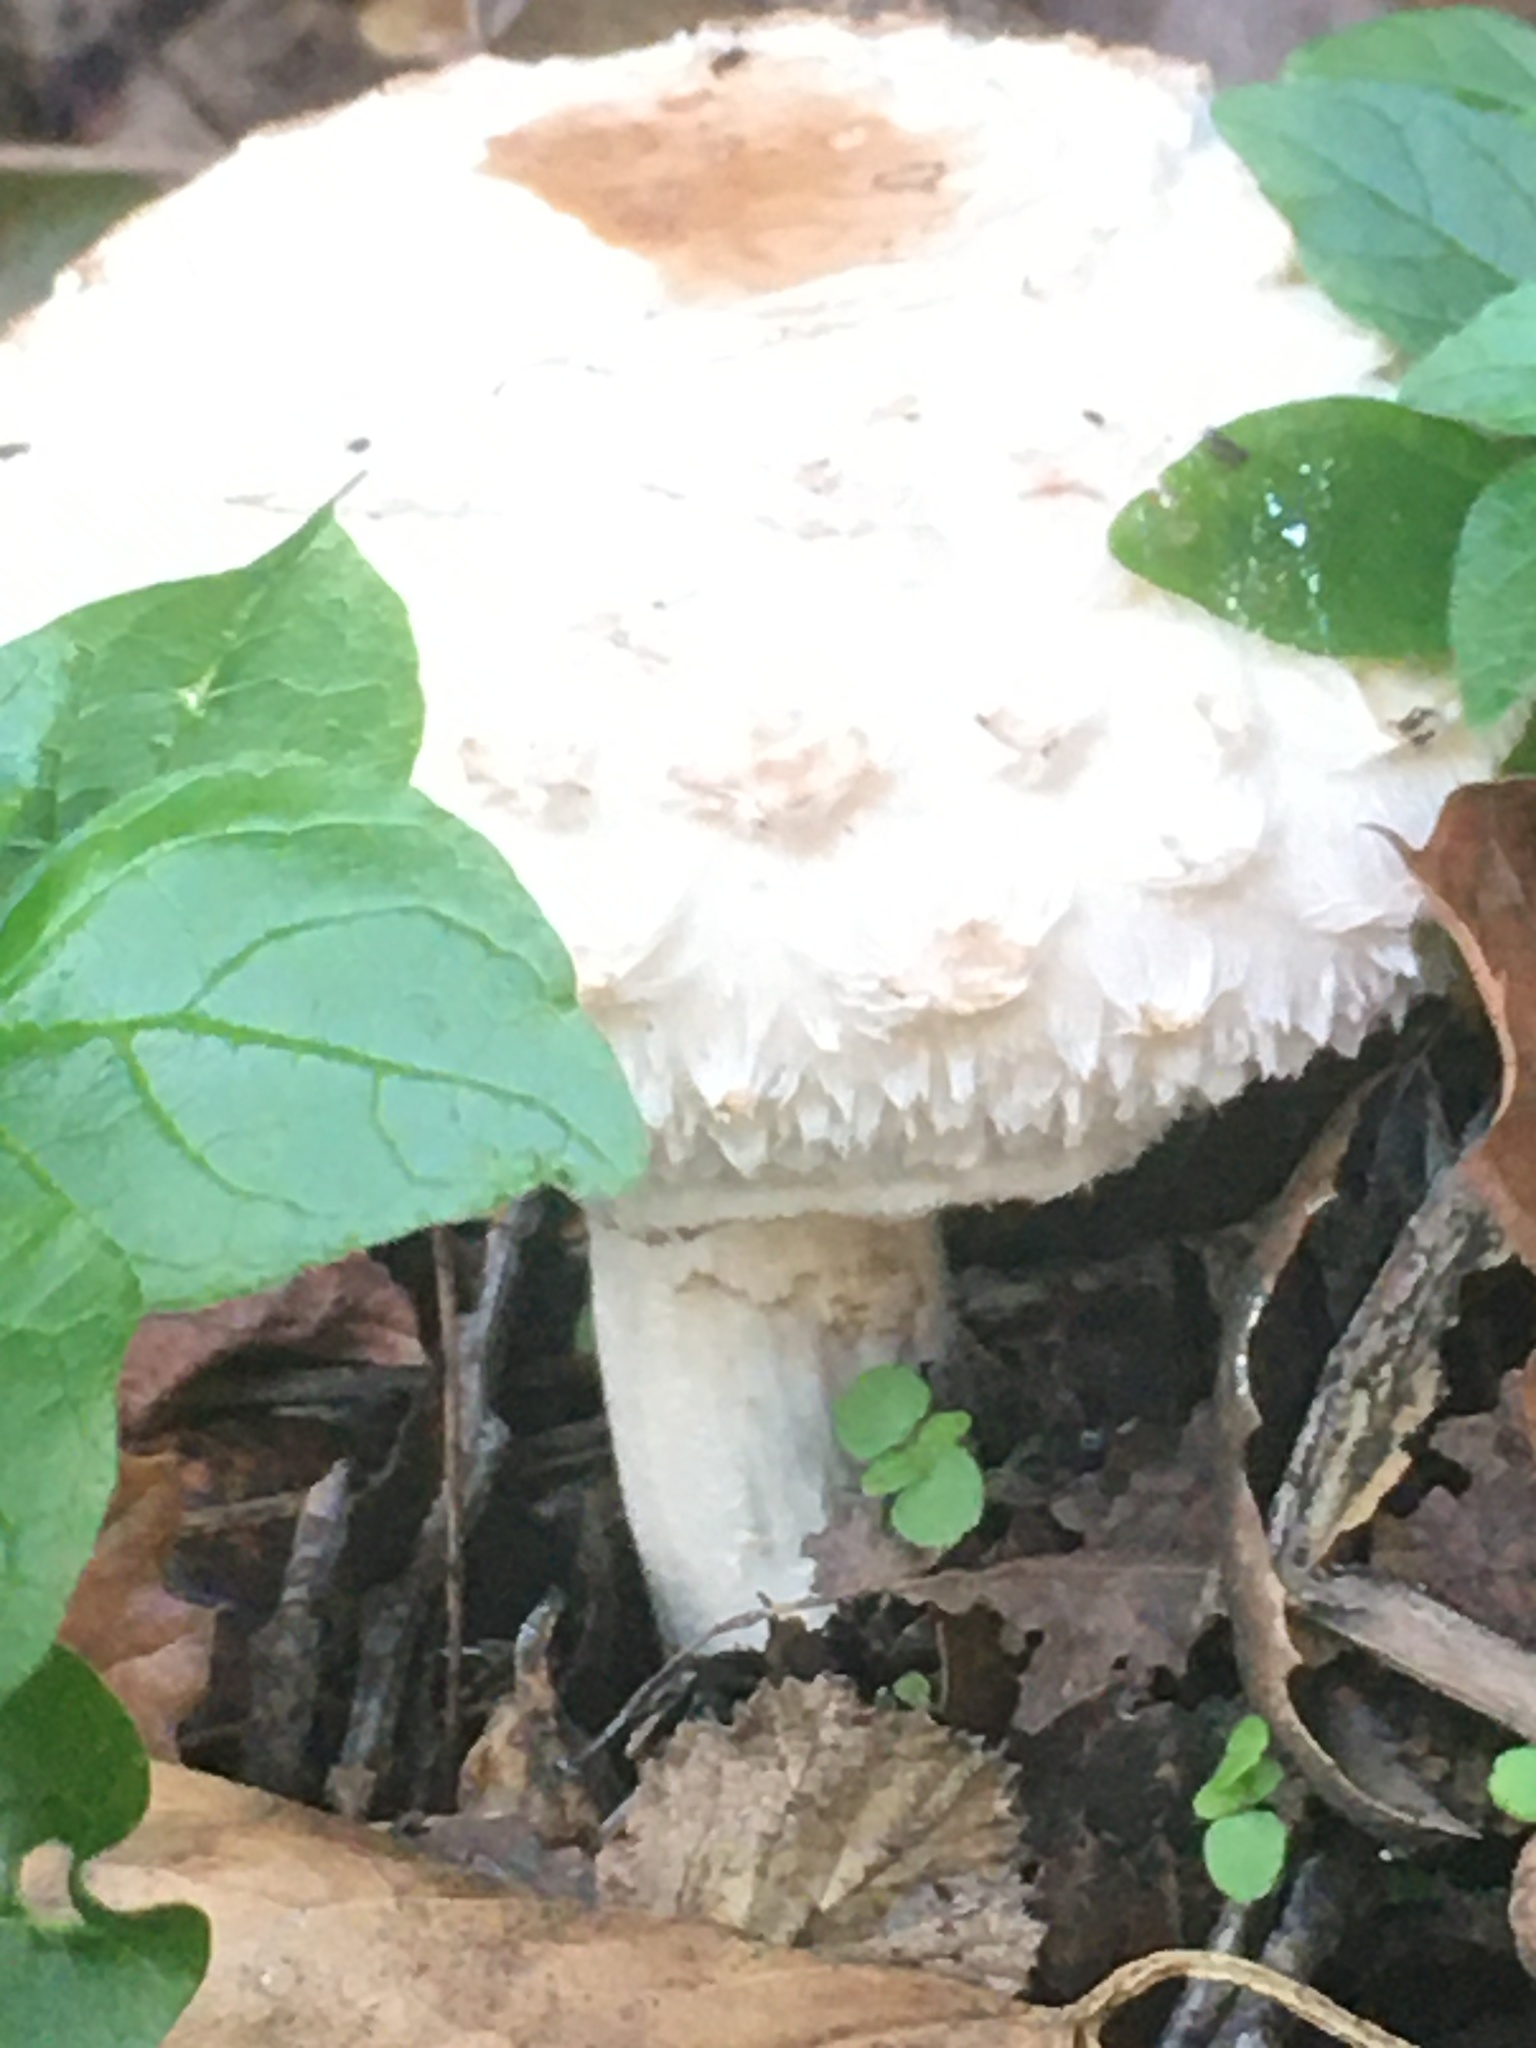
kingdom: Fungi
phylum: Basidiomycota
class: Agaricomycetes
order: Agaricales
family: Agaricaceae
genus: Chlorophyllum
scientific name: Chlorophyllum brunneum
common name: Brown parasol
